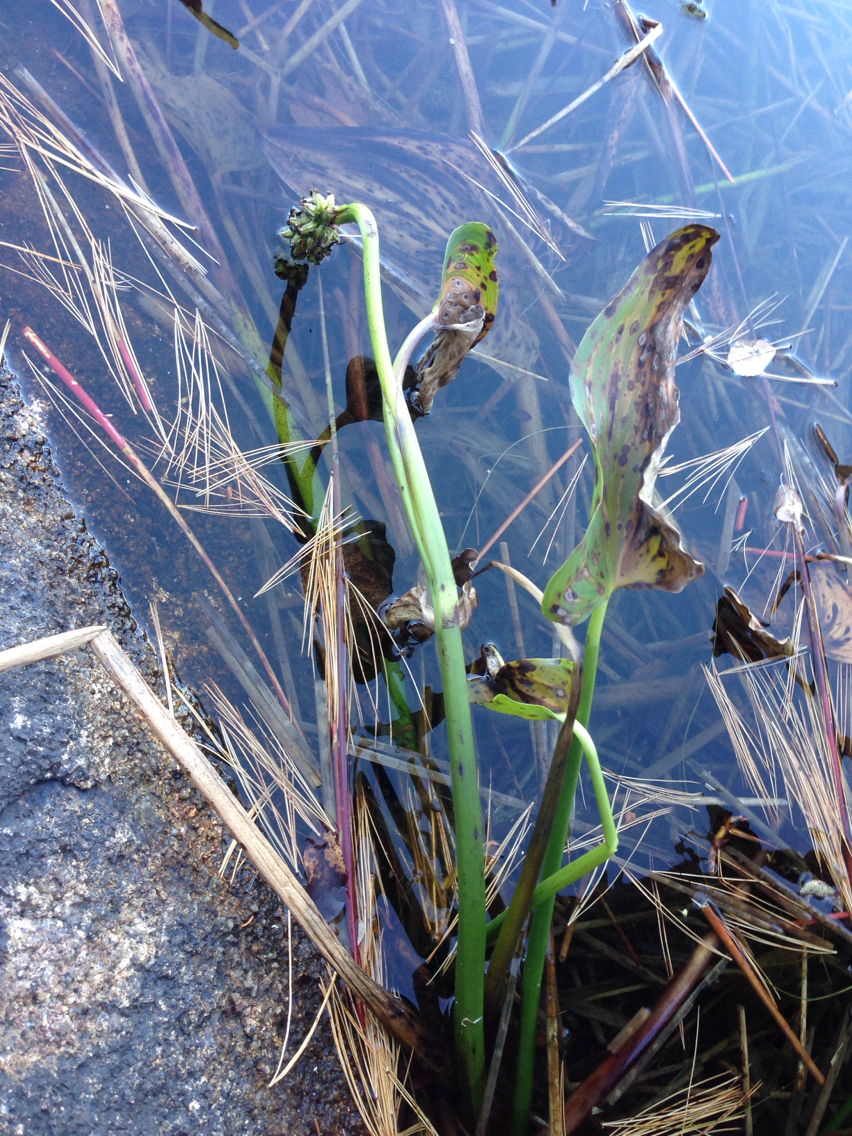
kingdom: Plantae
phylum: Tracheophyta
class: Liliopsida
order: Commelinales
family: Pontederiaceae
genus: Pontederia
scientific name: Pontederia cordata
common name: Pickerelweed
